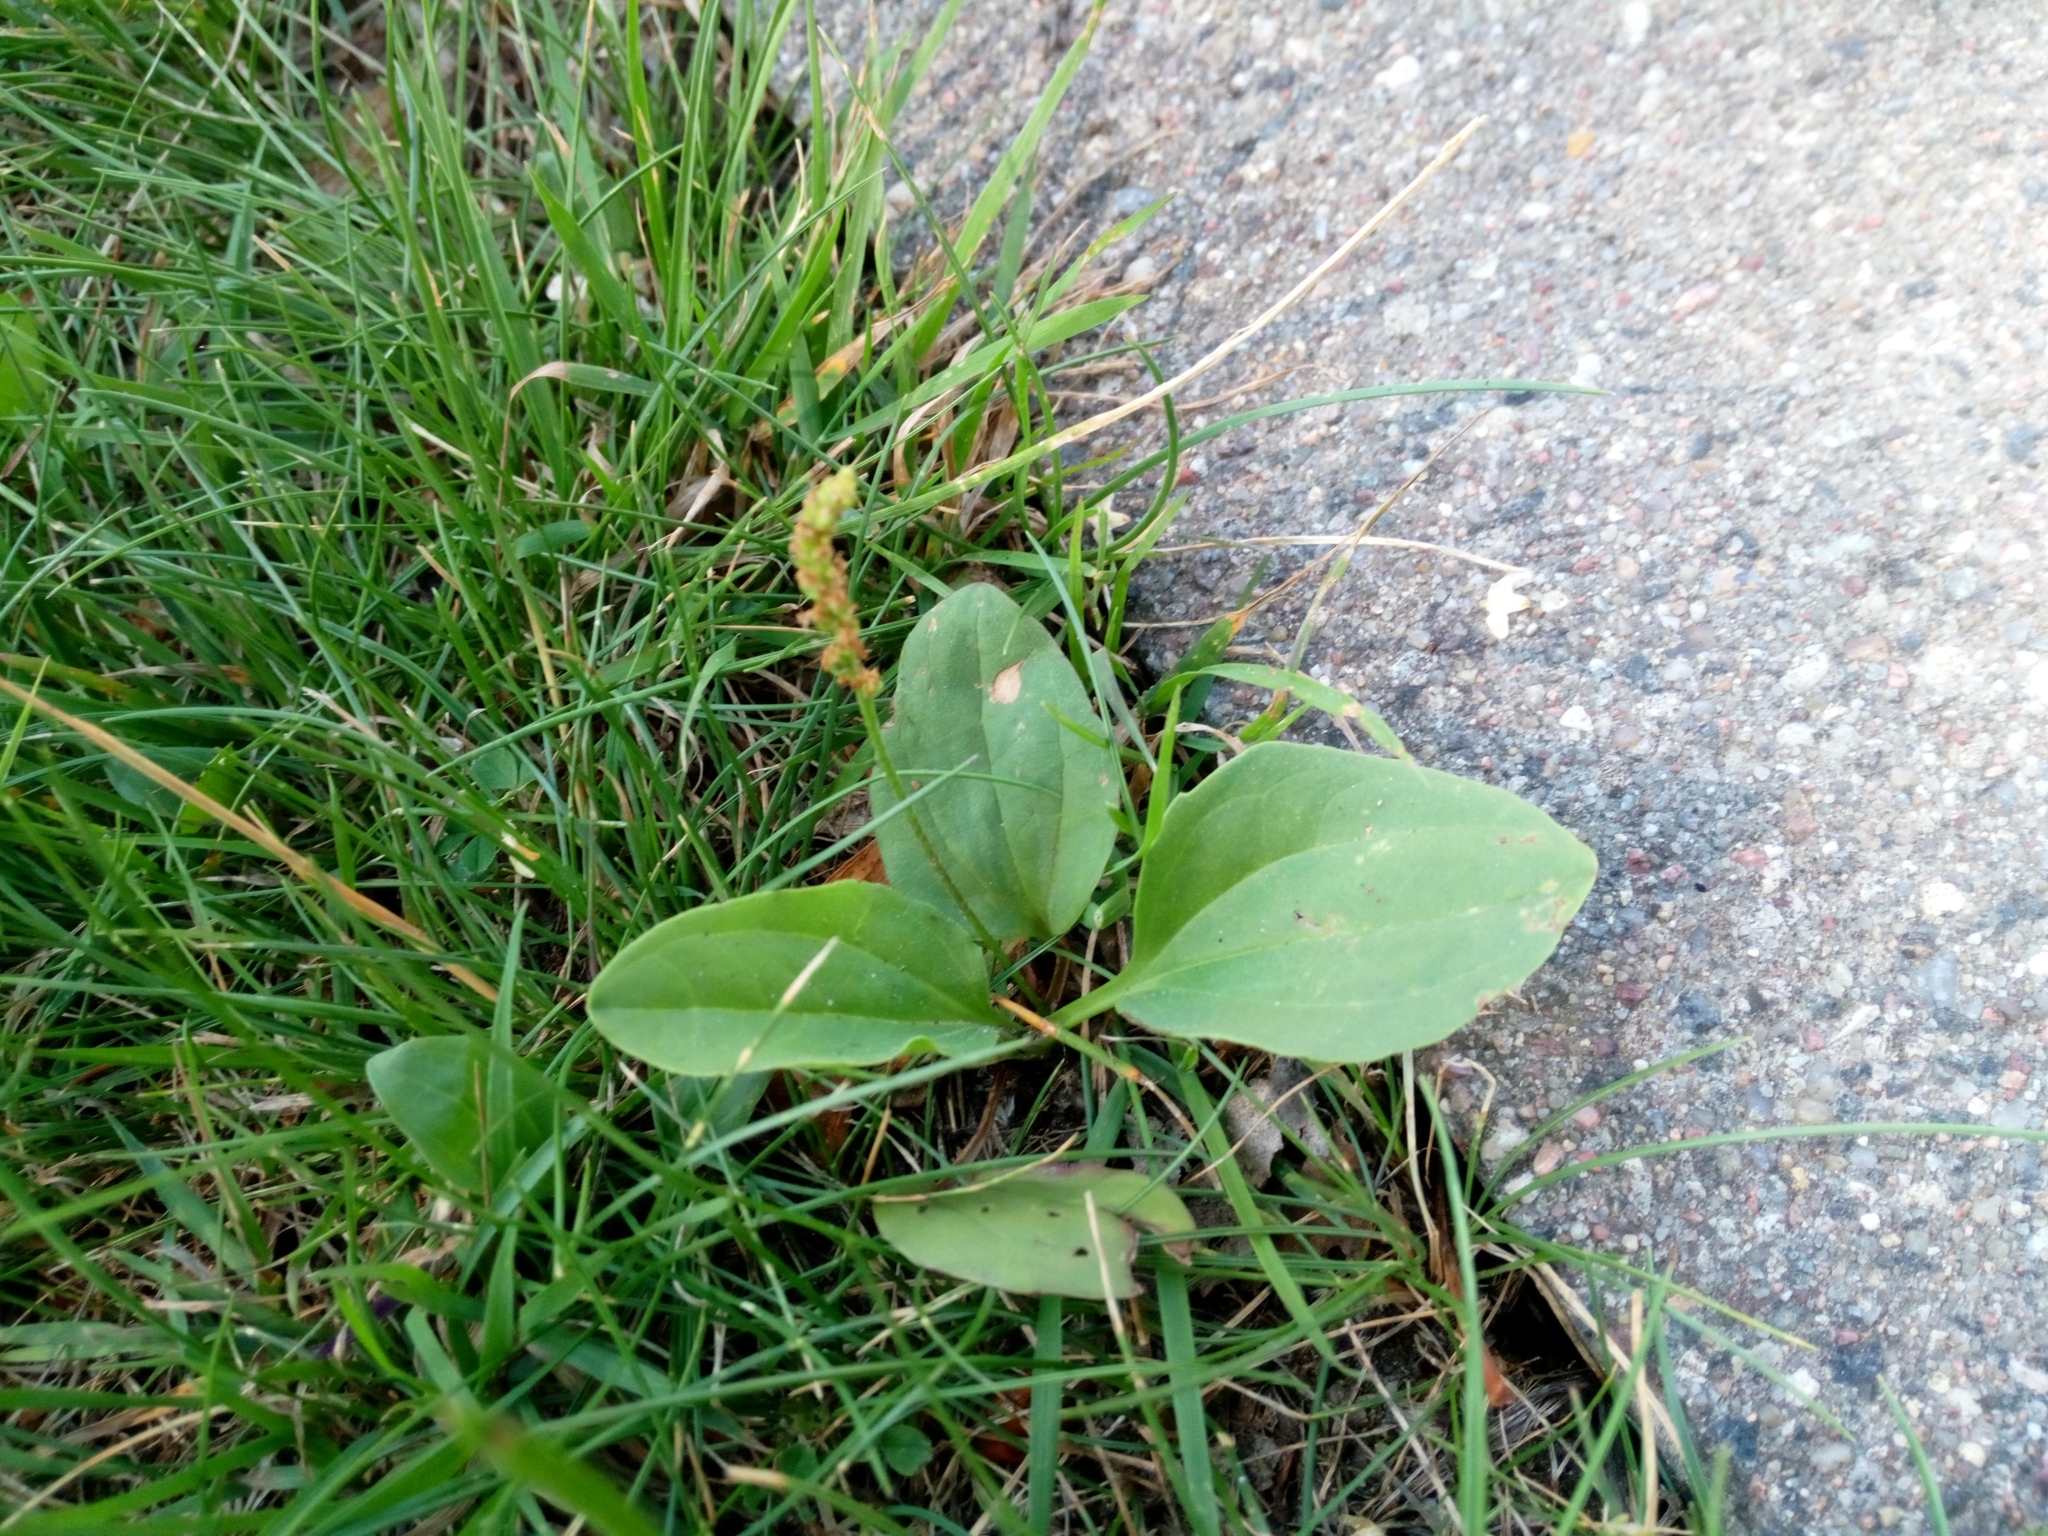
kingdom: Plantae
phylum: Tracheophyta
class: Magnoliopsida
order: Lamiales
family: Plantaginaceae
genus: Plantago
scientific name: Plantago major
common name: Common plantain
